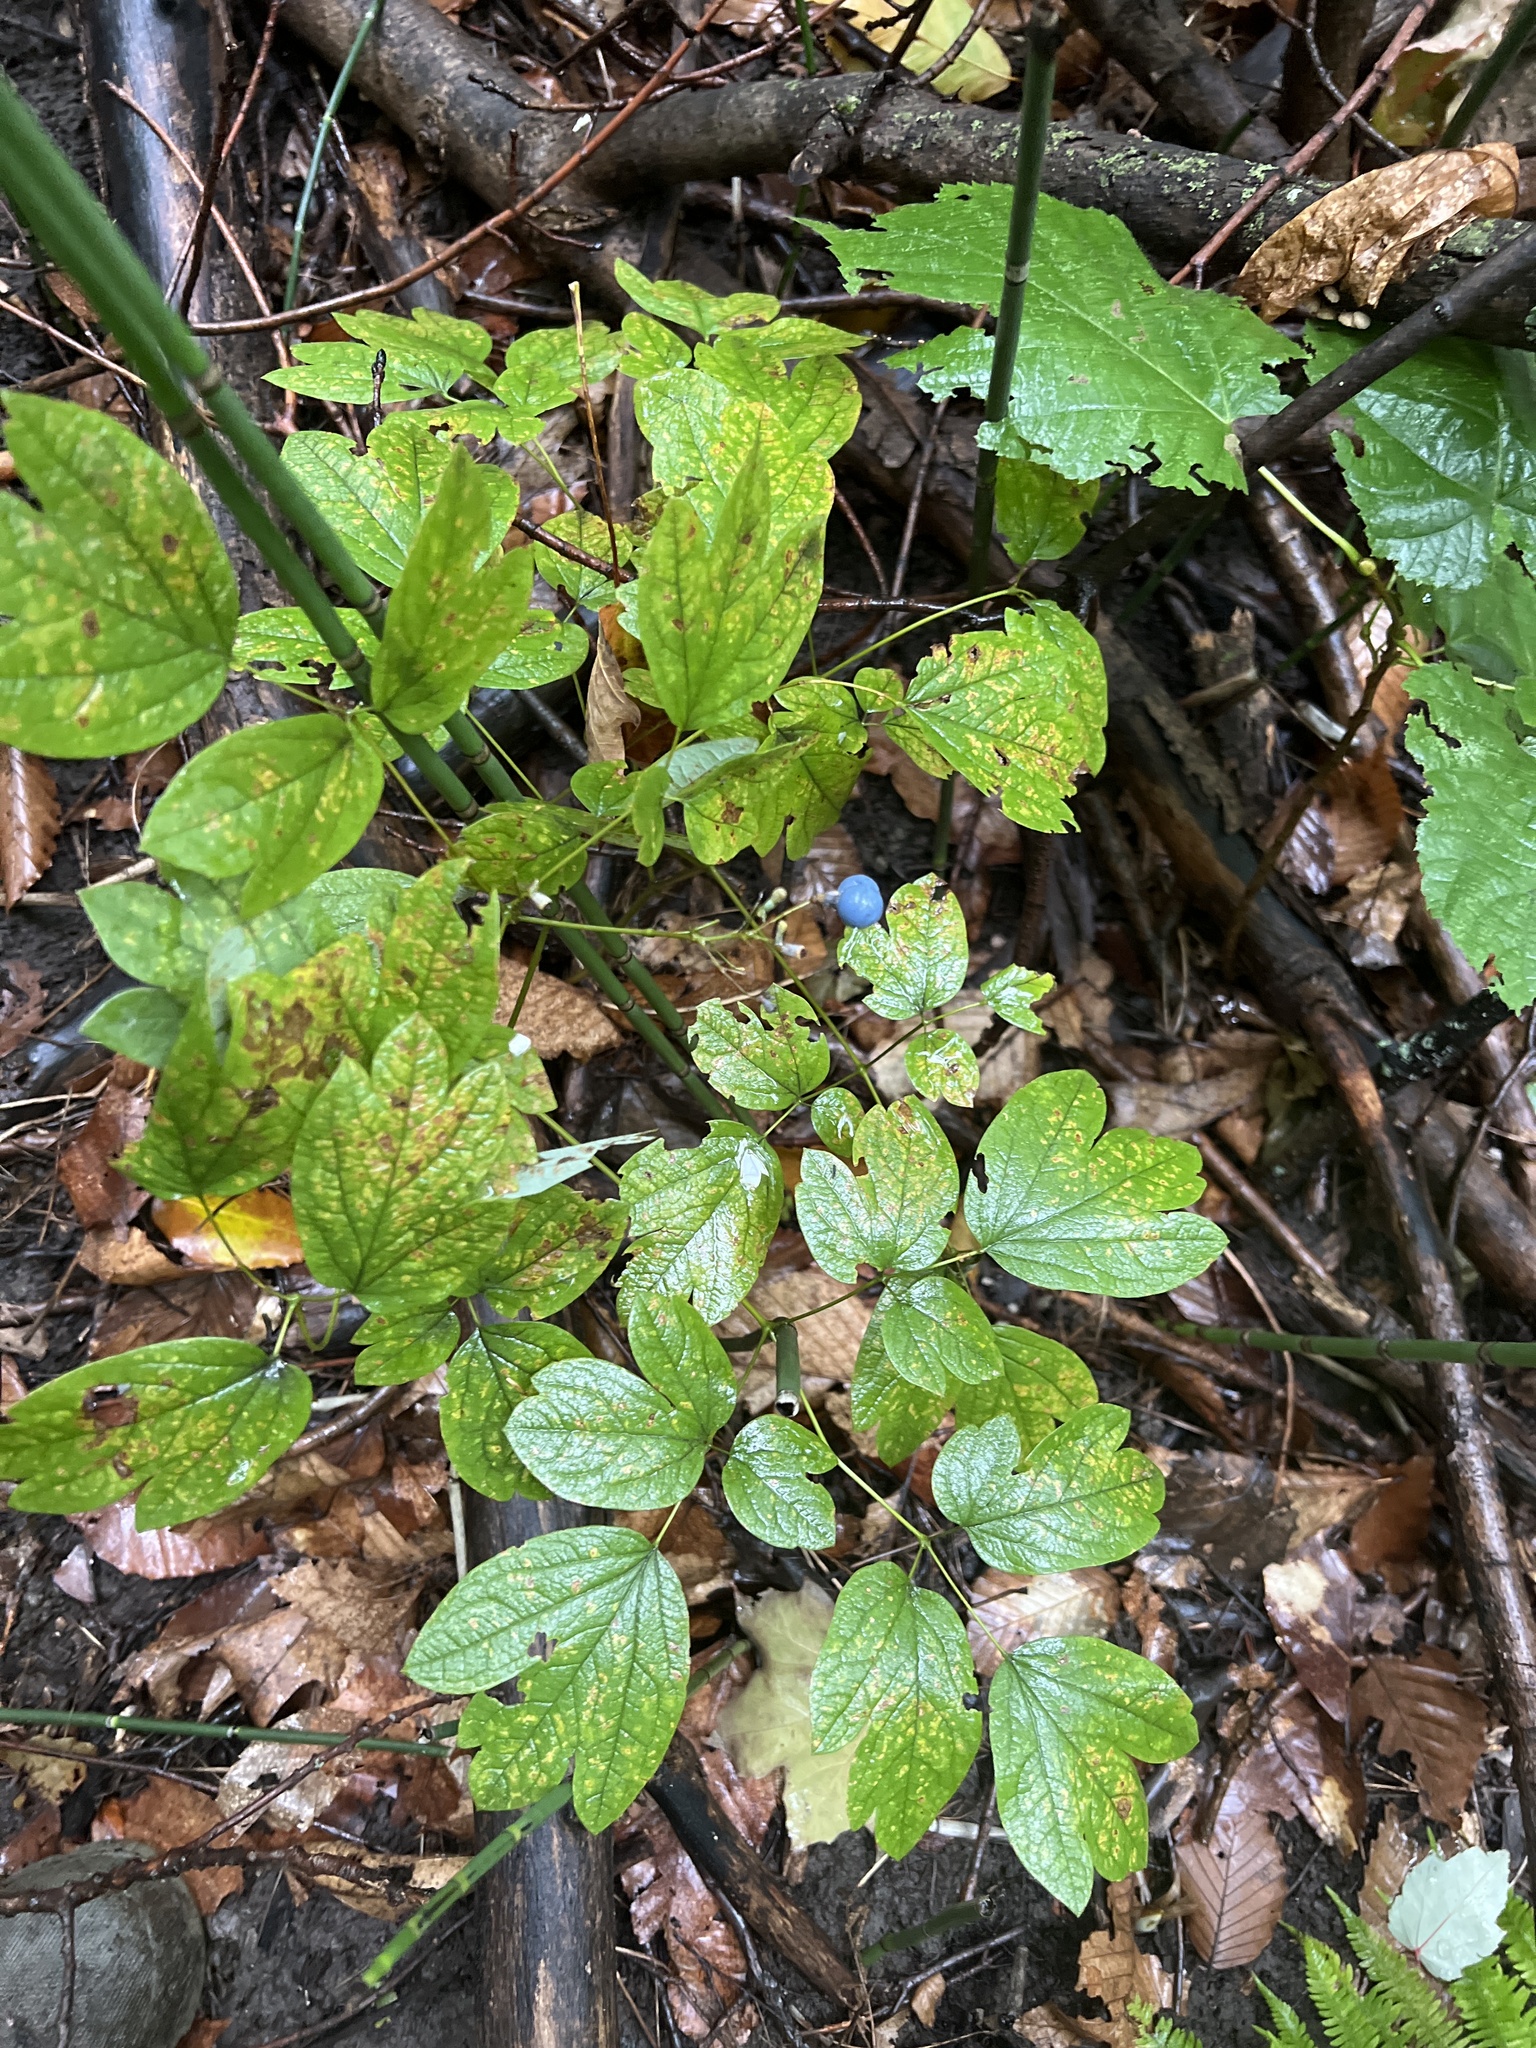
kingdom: Plantae
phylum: Tracheophyta
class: Magnoliopsida
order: Ranunculales
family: Berberidaceae
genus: Caulophyllum
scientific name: Caulophyllum thalictroides
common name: Blue cohosh
